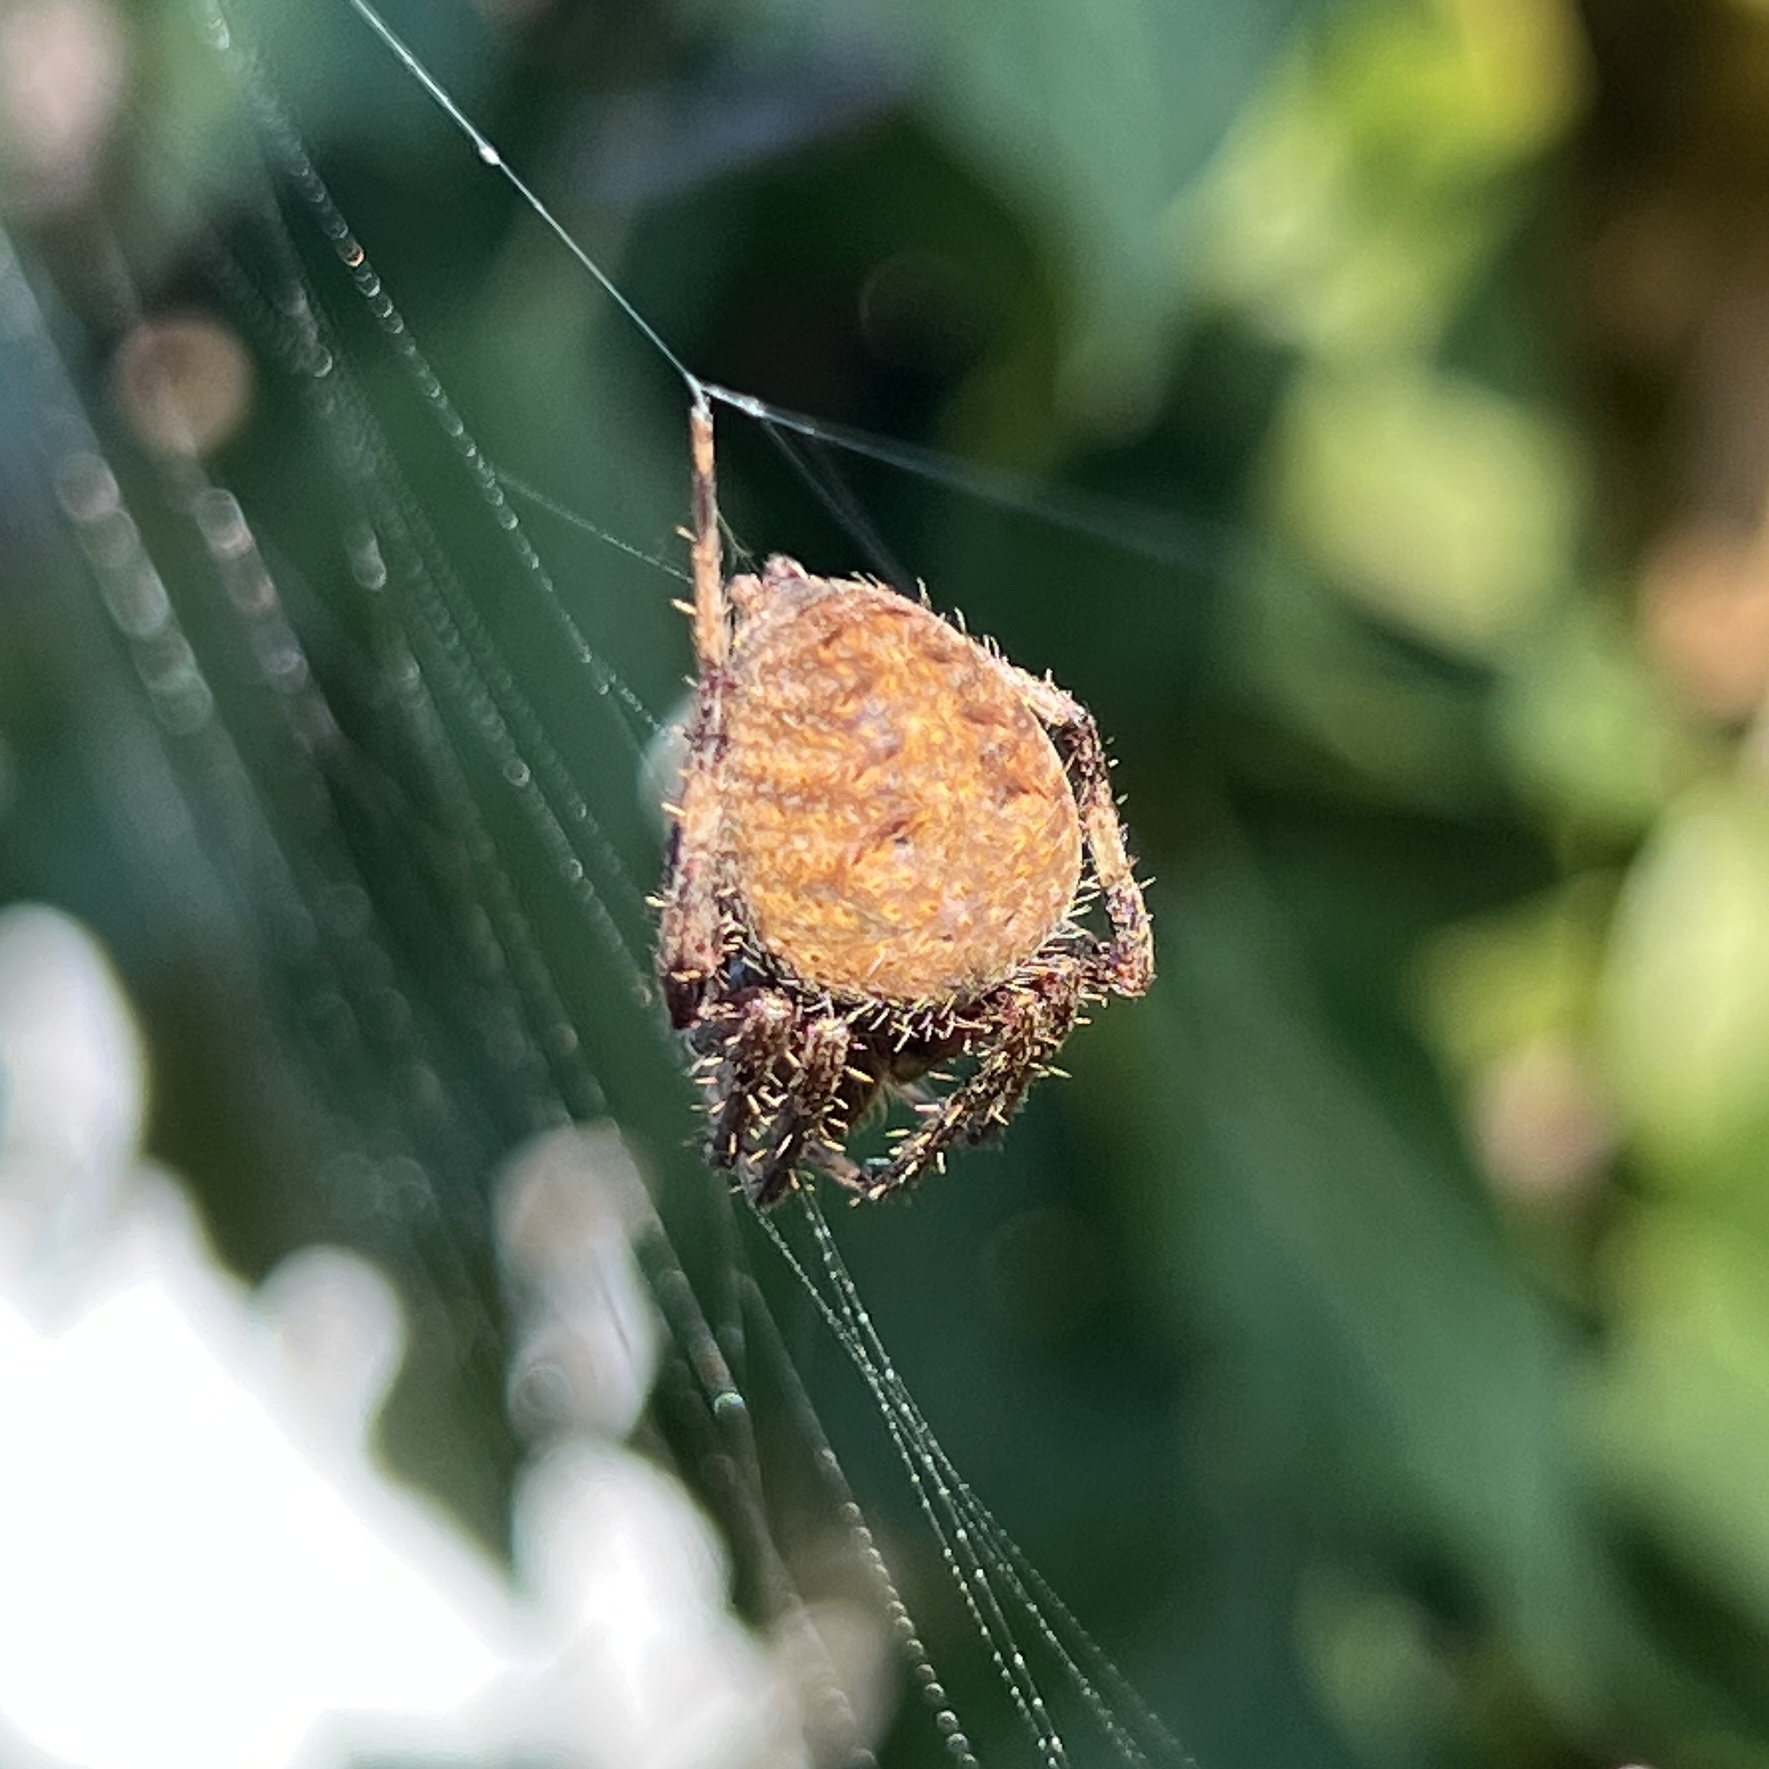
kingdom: Animalia
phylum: Arthropoda
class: Arachnida
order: Araneae
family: Araneidae
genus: Neoscona
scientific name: Neoscona crucifera
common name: Spotted orbweaver
